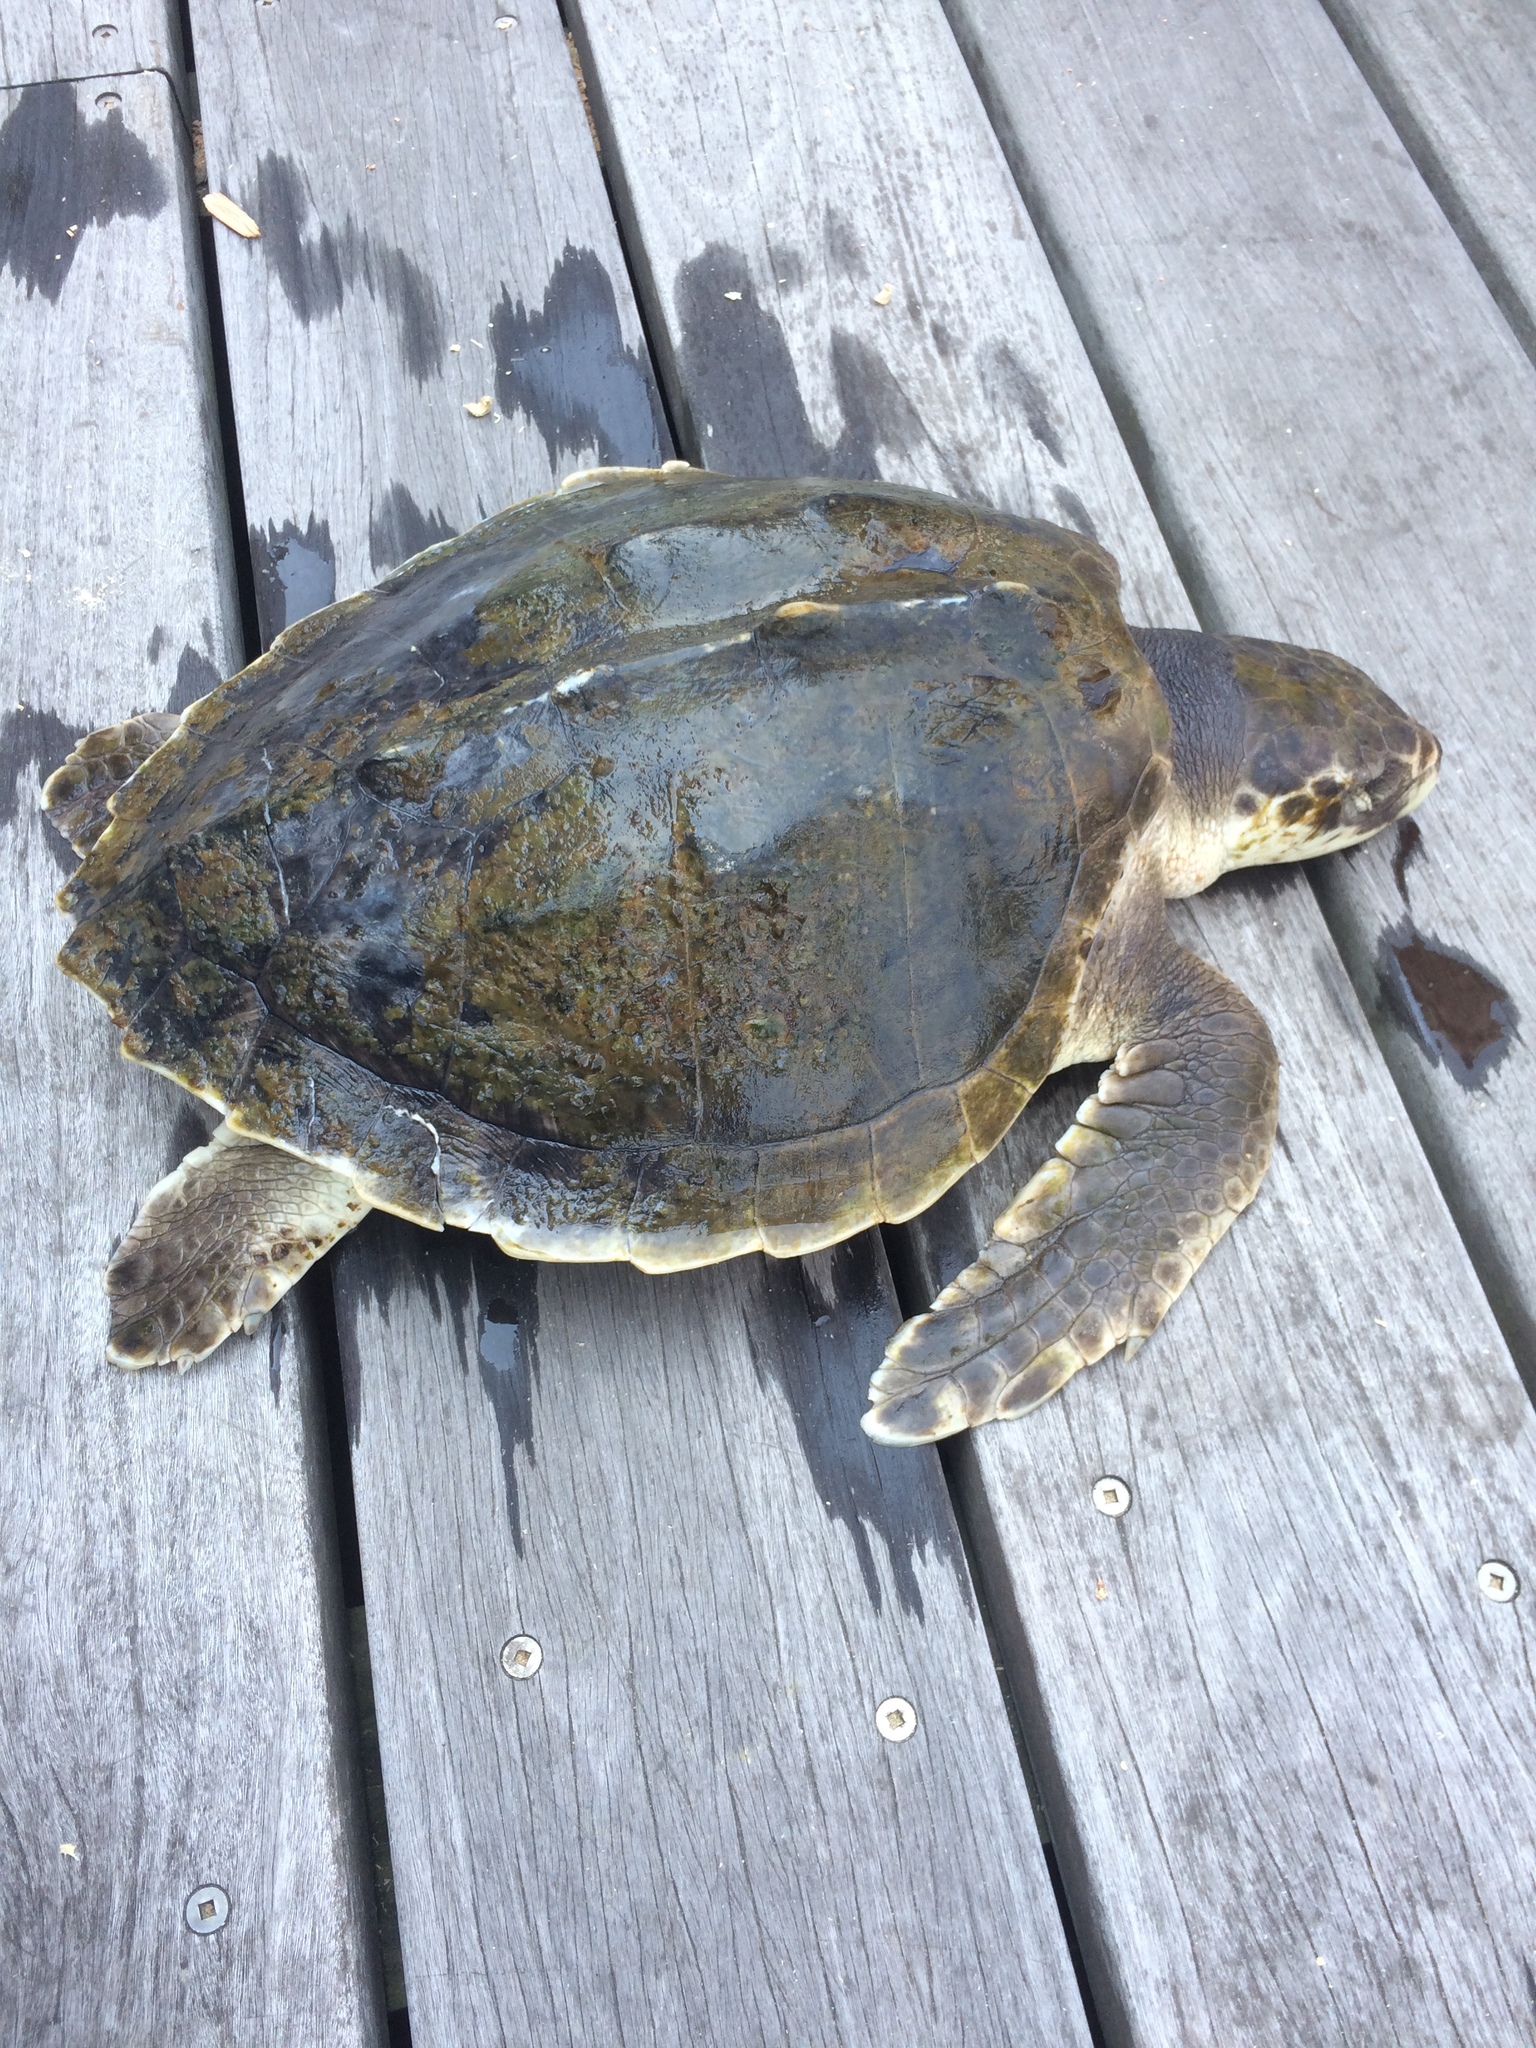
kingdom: Animalia
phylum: Chordata
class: Testudines
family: Cheloniidae
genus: Lepidochelys
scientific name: Lepidochelys kempii
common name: Kemp's ridley turtle
